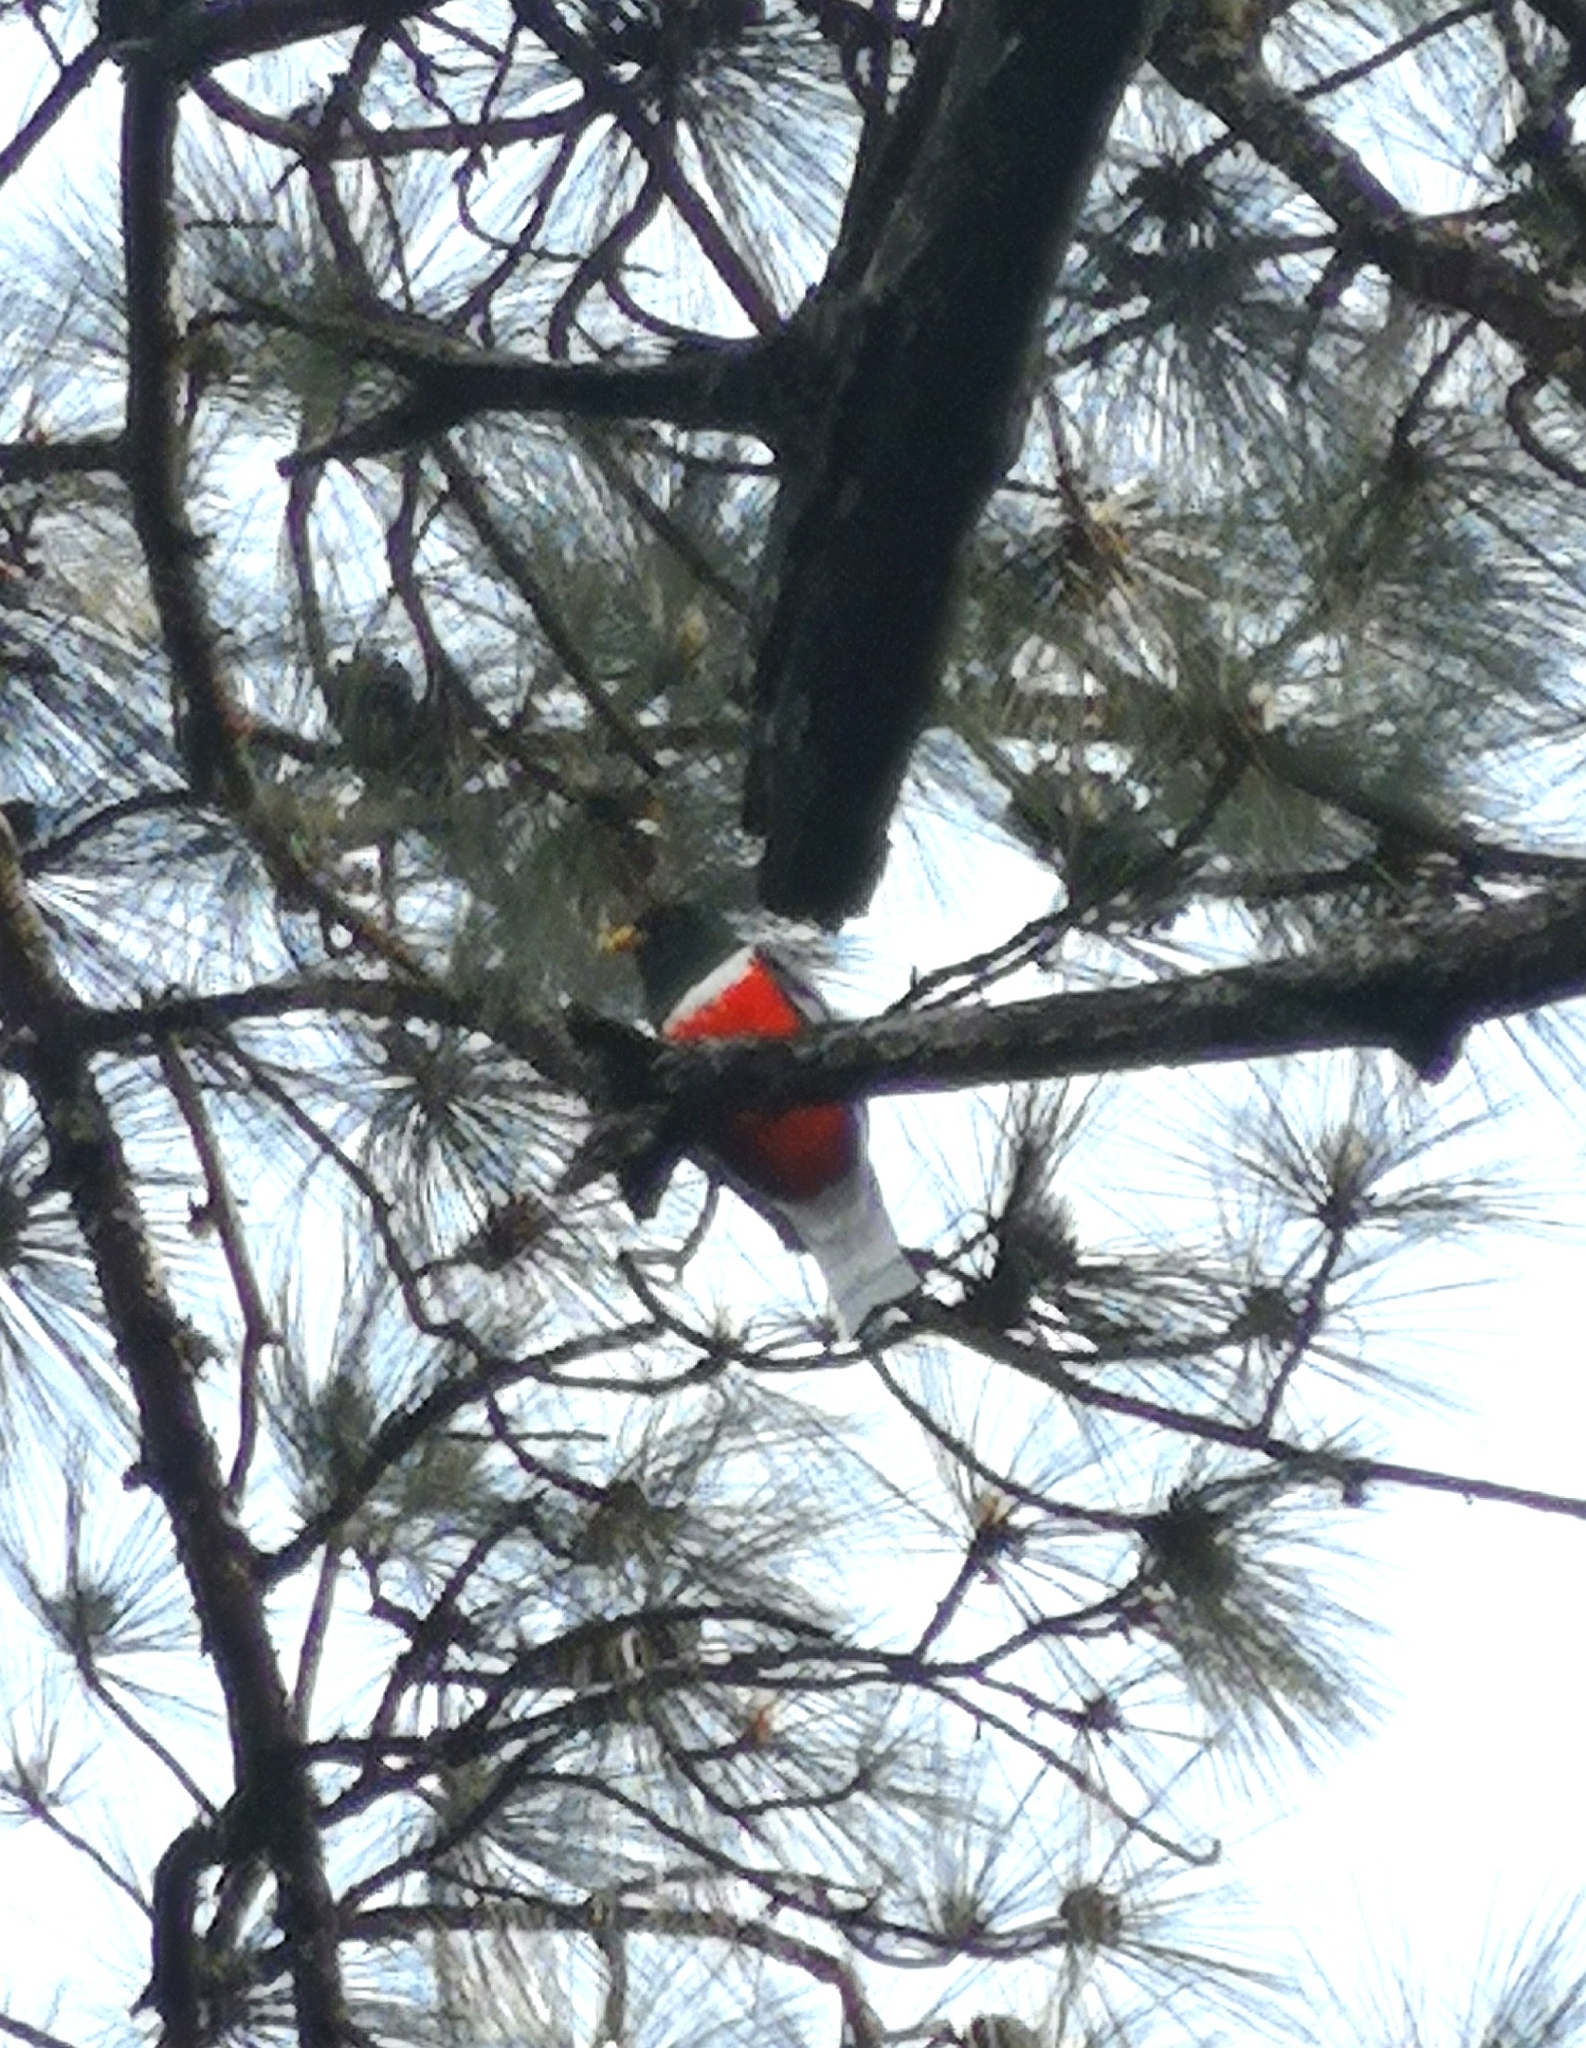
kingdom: Animalia
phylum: Chordata
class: Aves
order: Trogoniformes
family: Trogonidae
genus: Trogon
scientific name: Trogon elegans
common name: Elegant trogon
